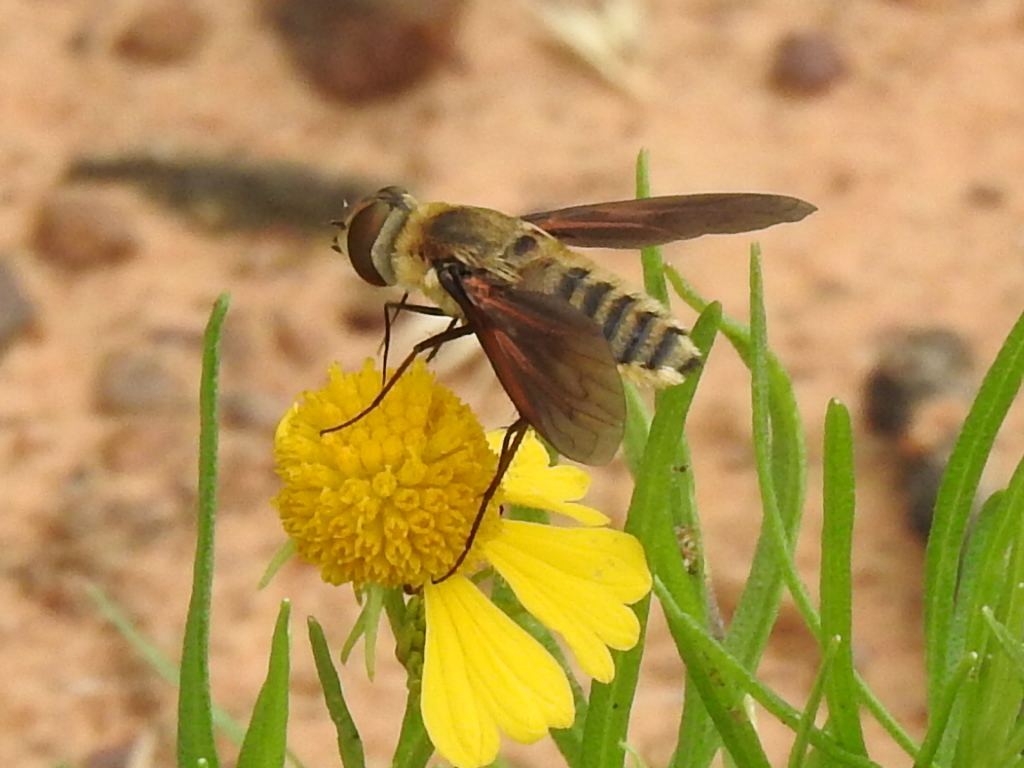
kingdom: Animalia
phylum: Arthropoda
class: Insecta
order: Diptera
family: Bombyliidae
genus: Poecilanthrax
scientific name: Poecilanthrax lucifer
